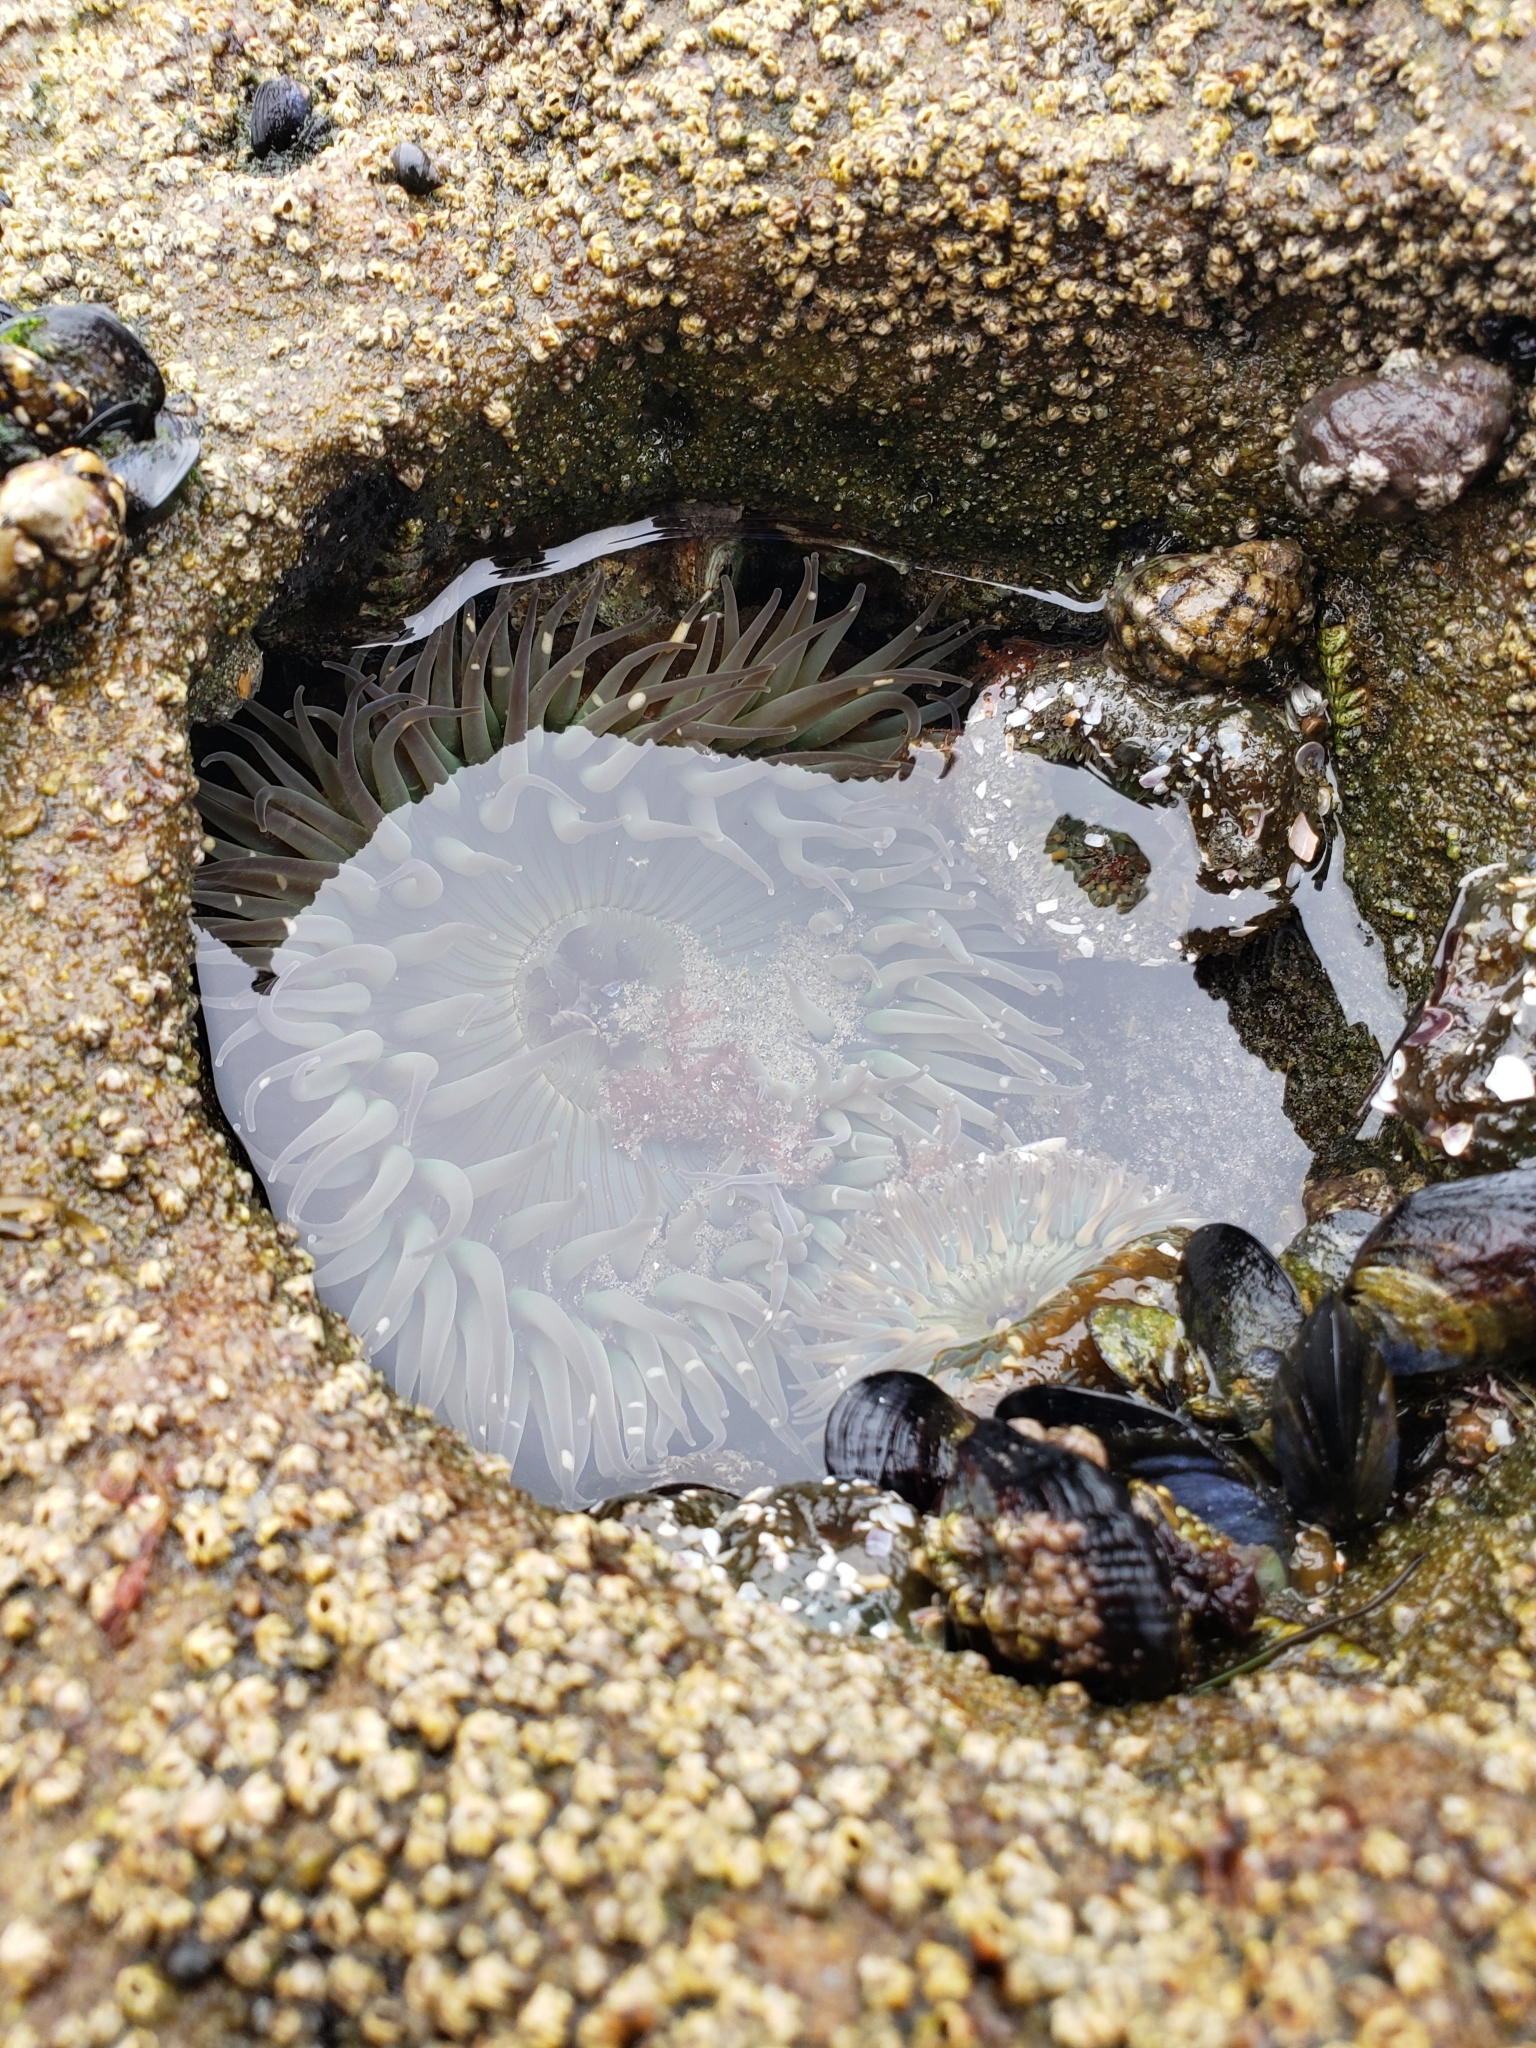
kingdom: Animalia
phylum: Cnidaria
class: Anthozoa
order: Actiniaria
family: Actiniidae
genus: Anthopleura
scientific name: Anthopleura sola
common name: Sun anemone
